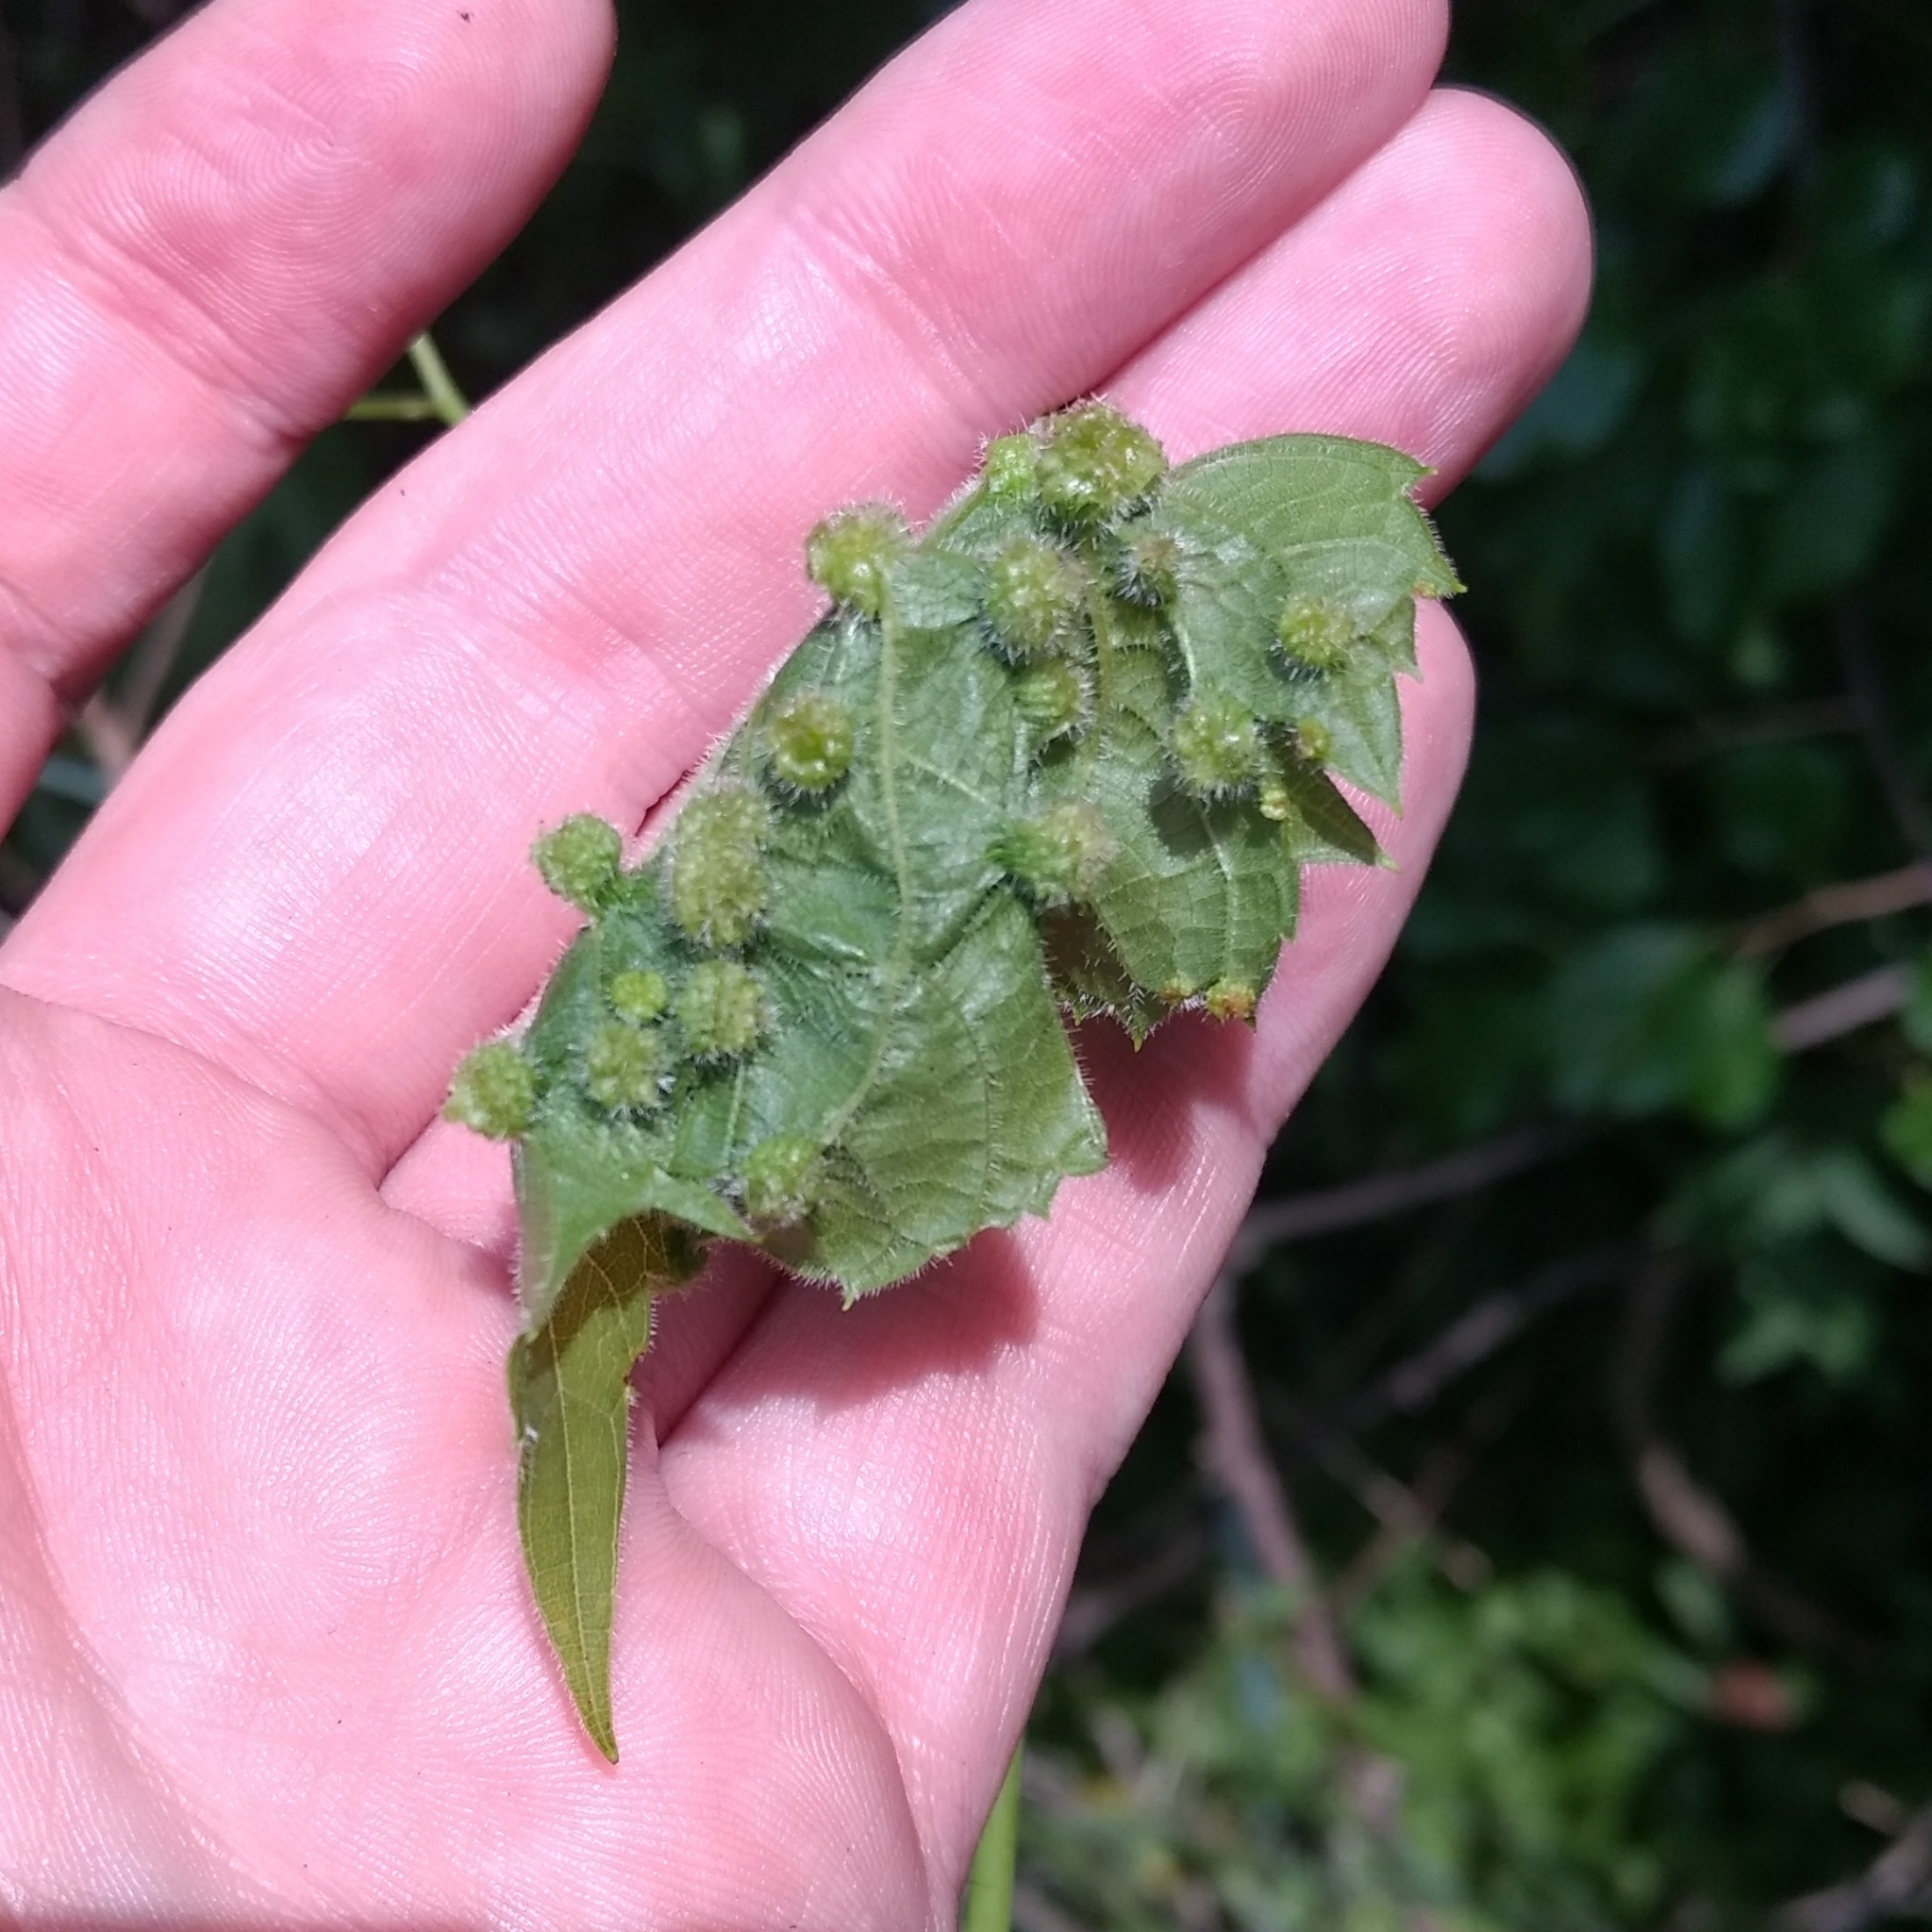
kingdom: Animalia
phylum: Arthropoda
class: Insecta
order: Hemiptera
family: Phylloxeridae
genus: Daktulosphaira
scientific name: Daktulosphaira vitifoliae
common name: Grape phylloxera
